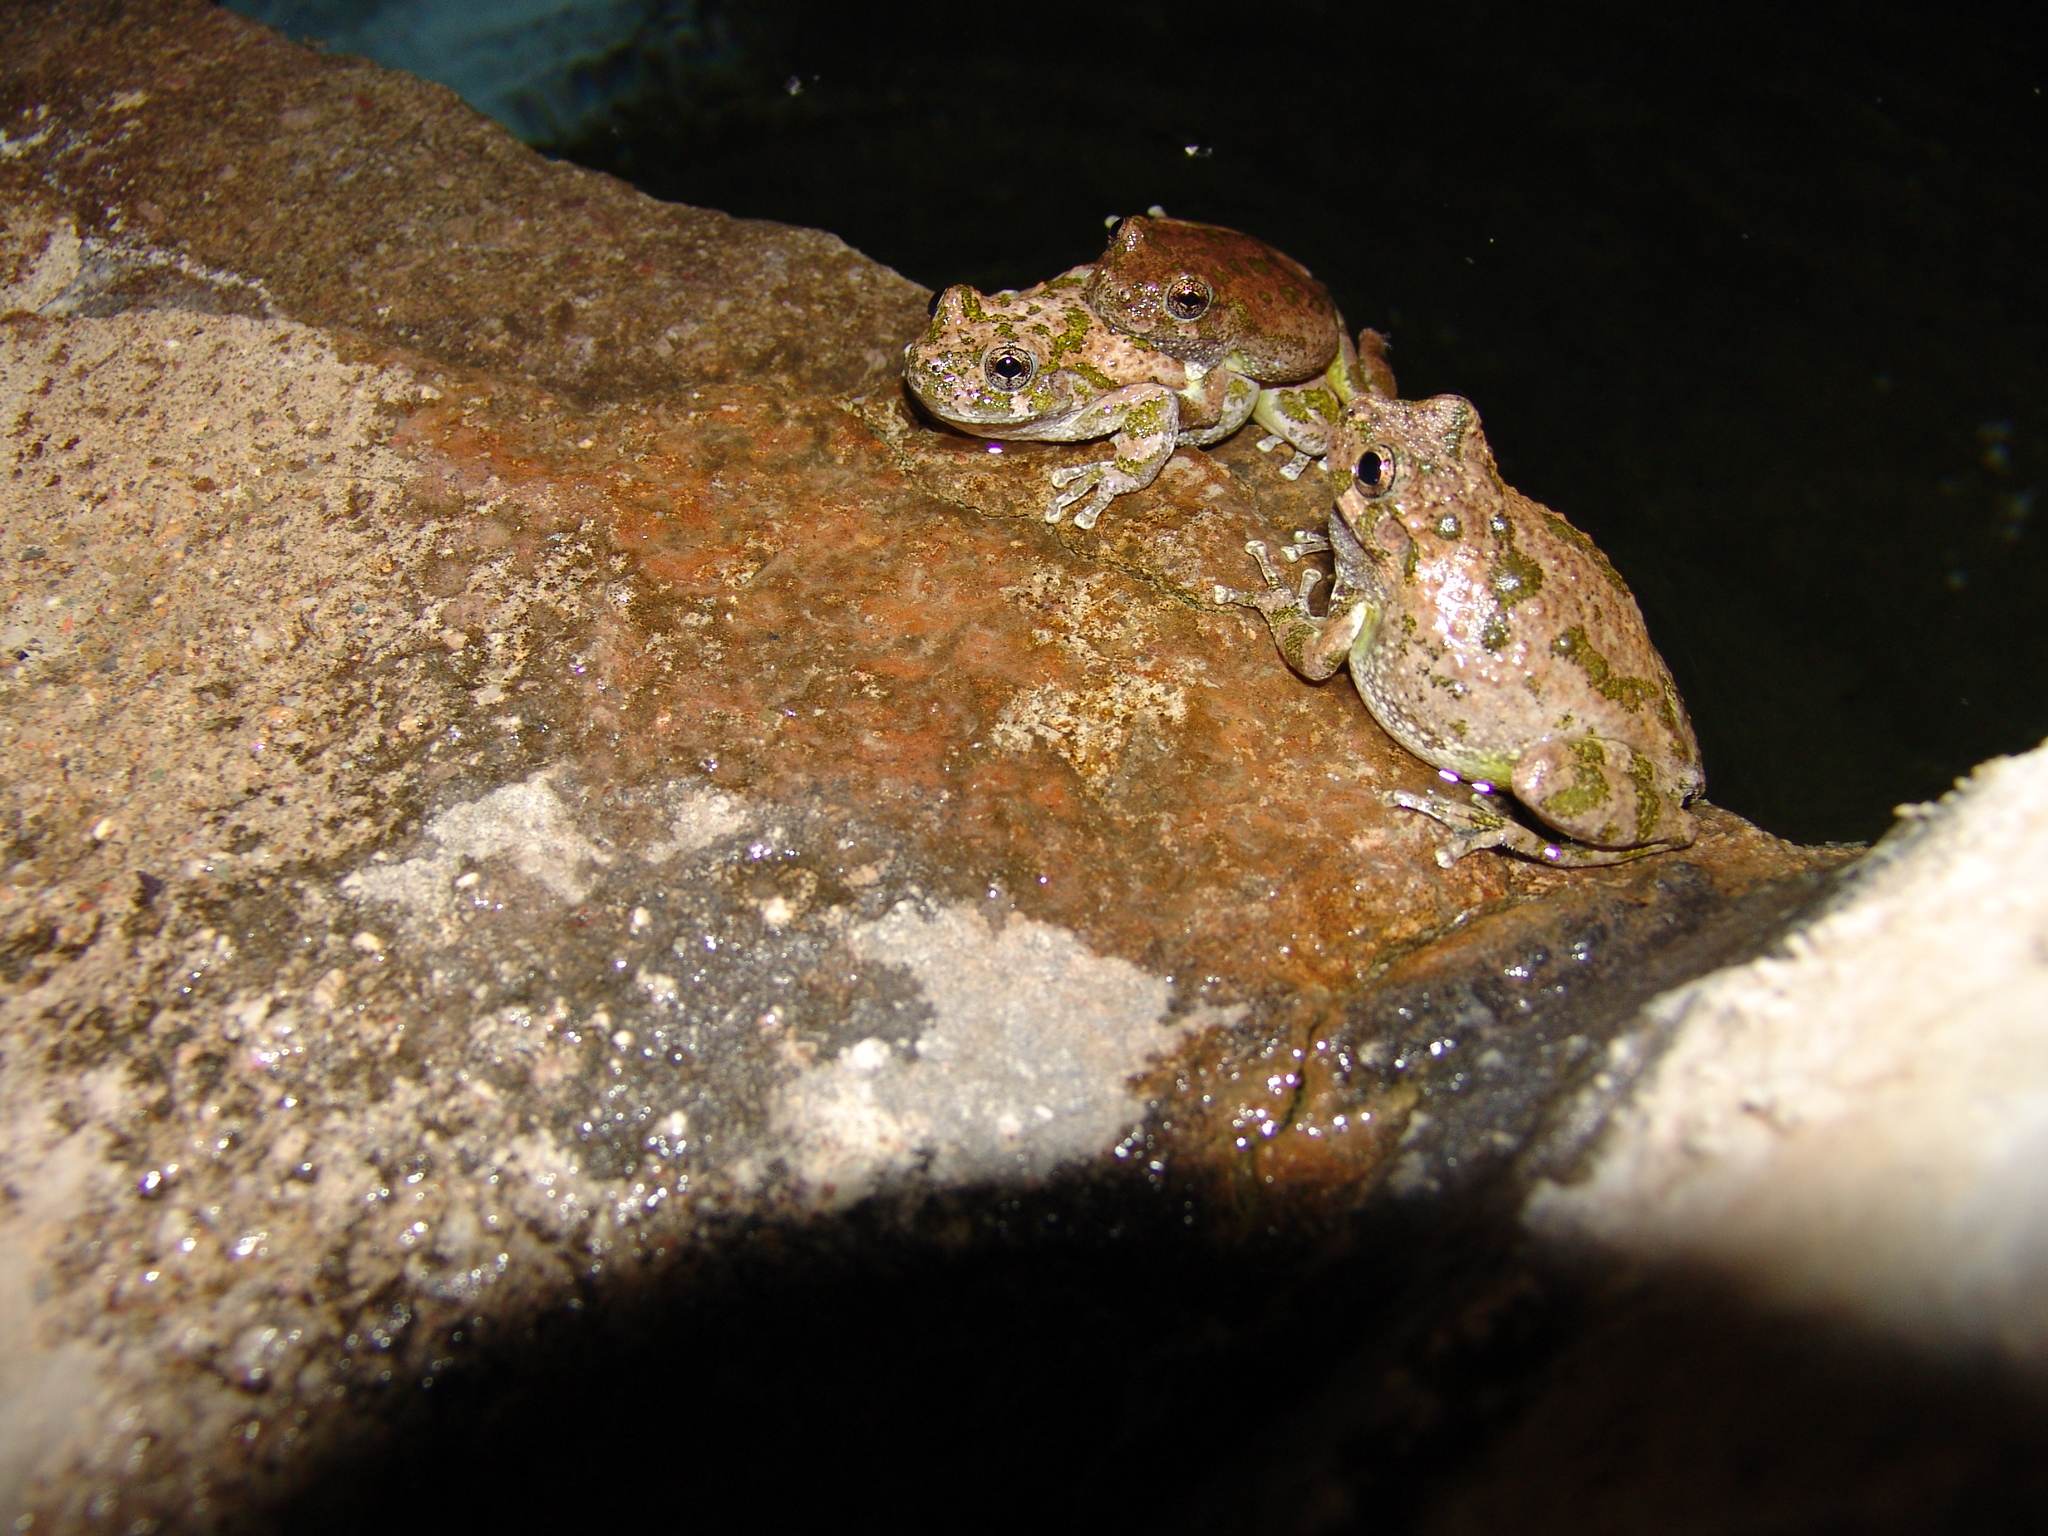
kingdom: Animalia
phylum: Chordata
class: Amphibia
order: Anura
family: Hylidae
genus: Dryophytes
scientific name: Dryophytes arenicolor
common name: Canyon treefrog
